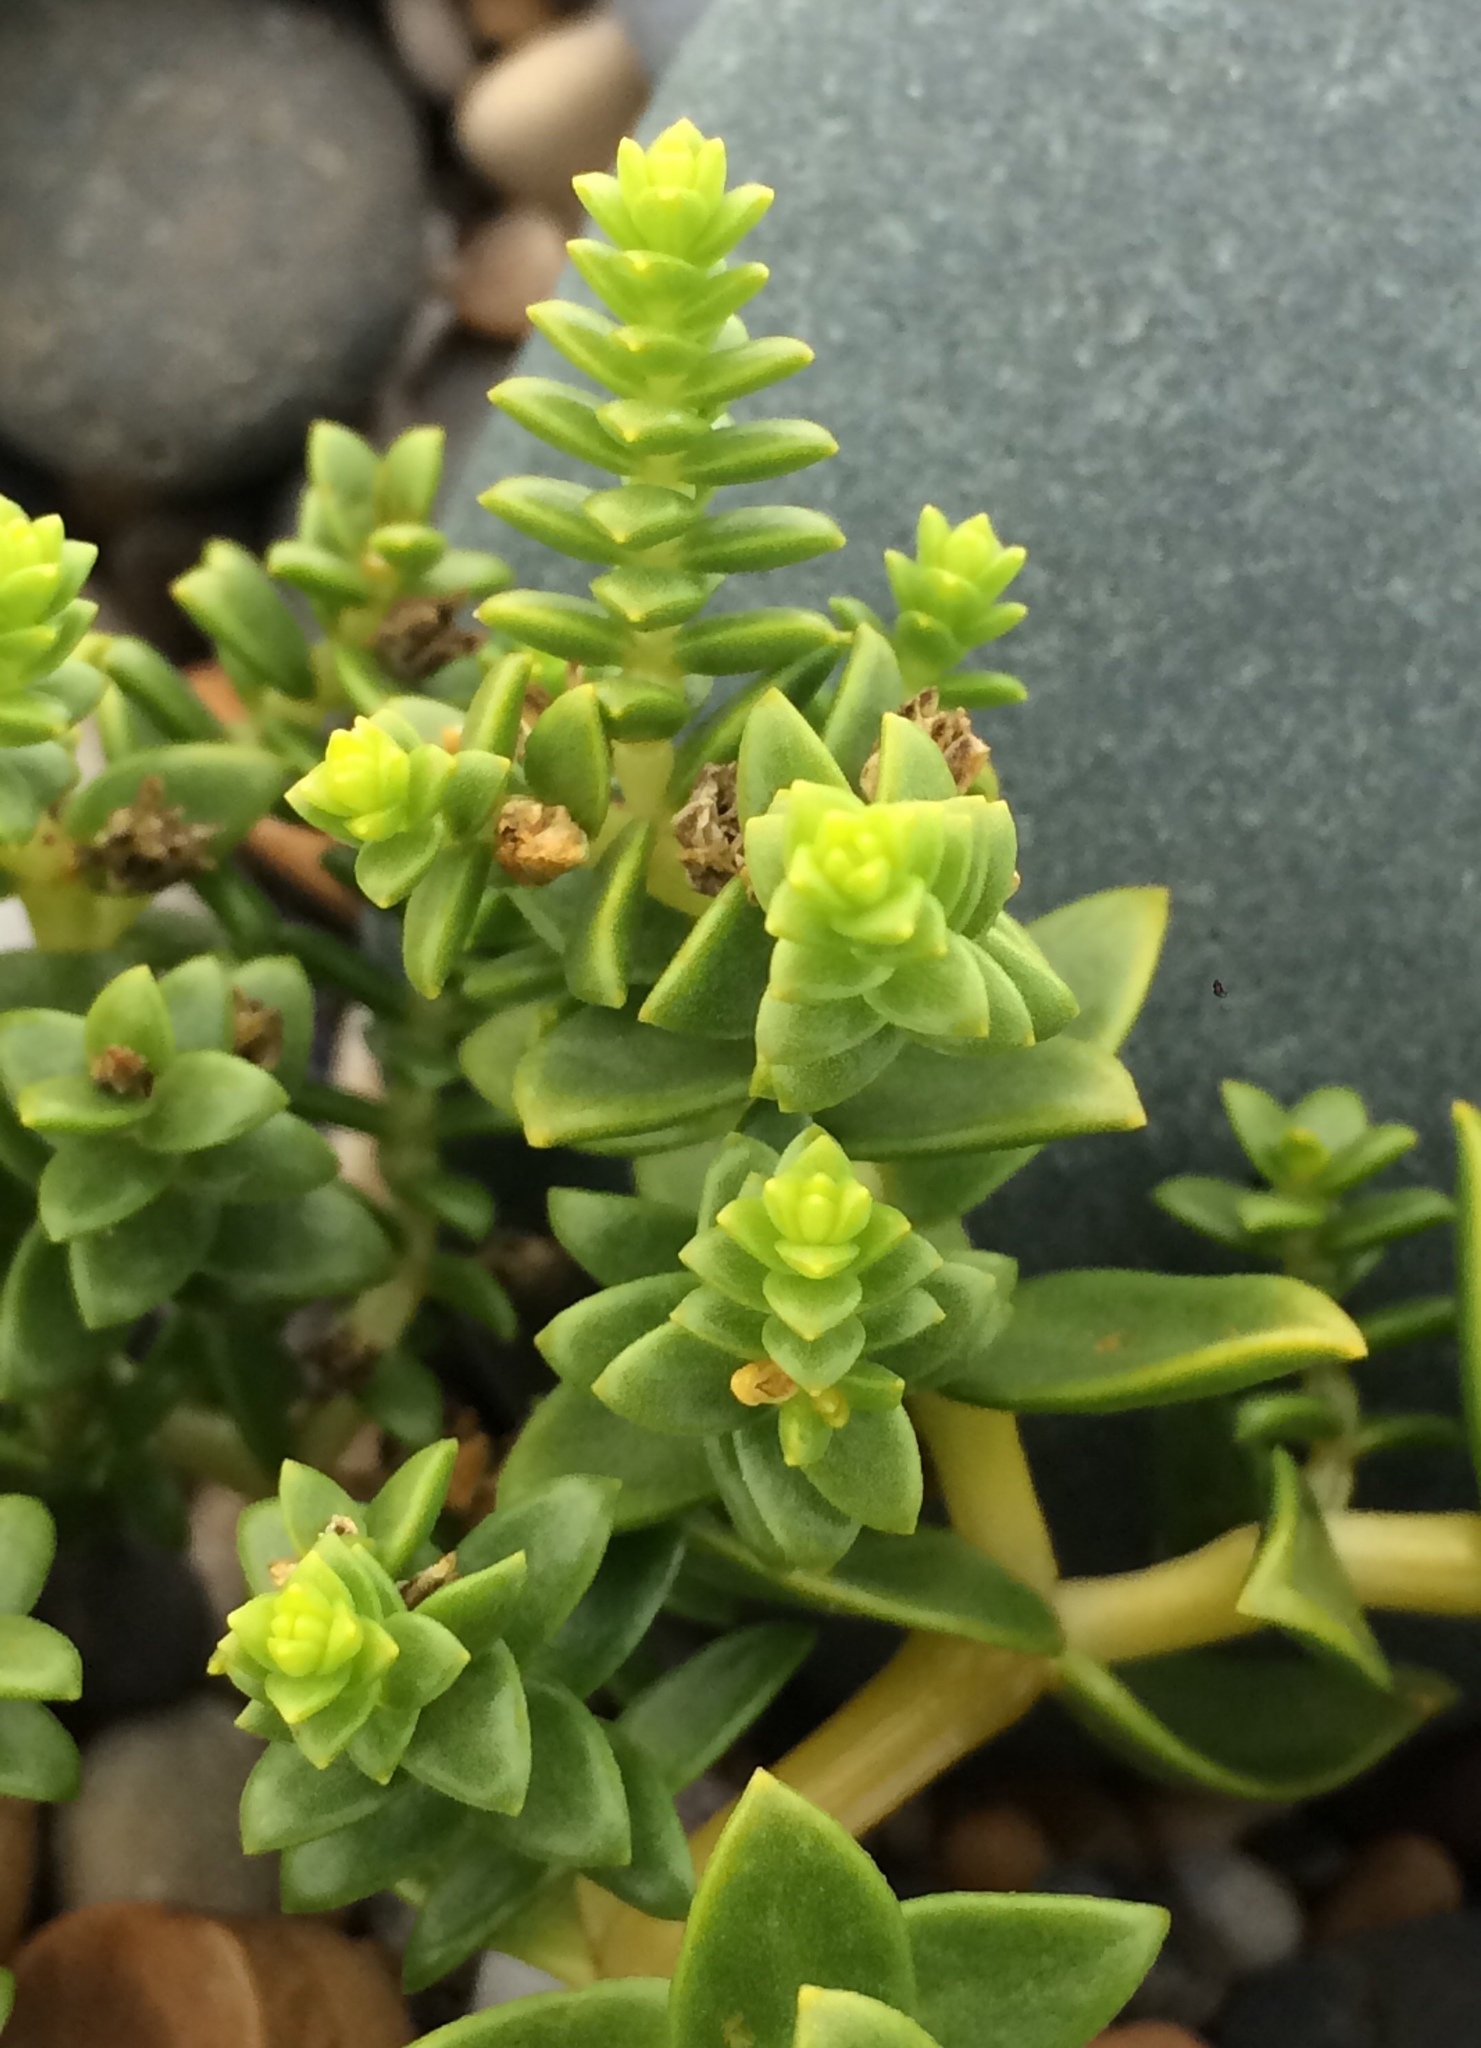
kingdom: Plantae
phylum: Tracheophyta
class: Magnoliopsida
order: Caryophyllales
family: Caryophyllaceae
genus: Honckenya
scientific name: Honckenya peploides
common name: Sea sandwort
